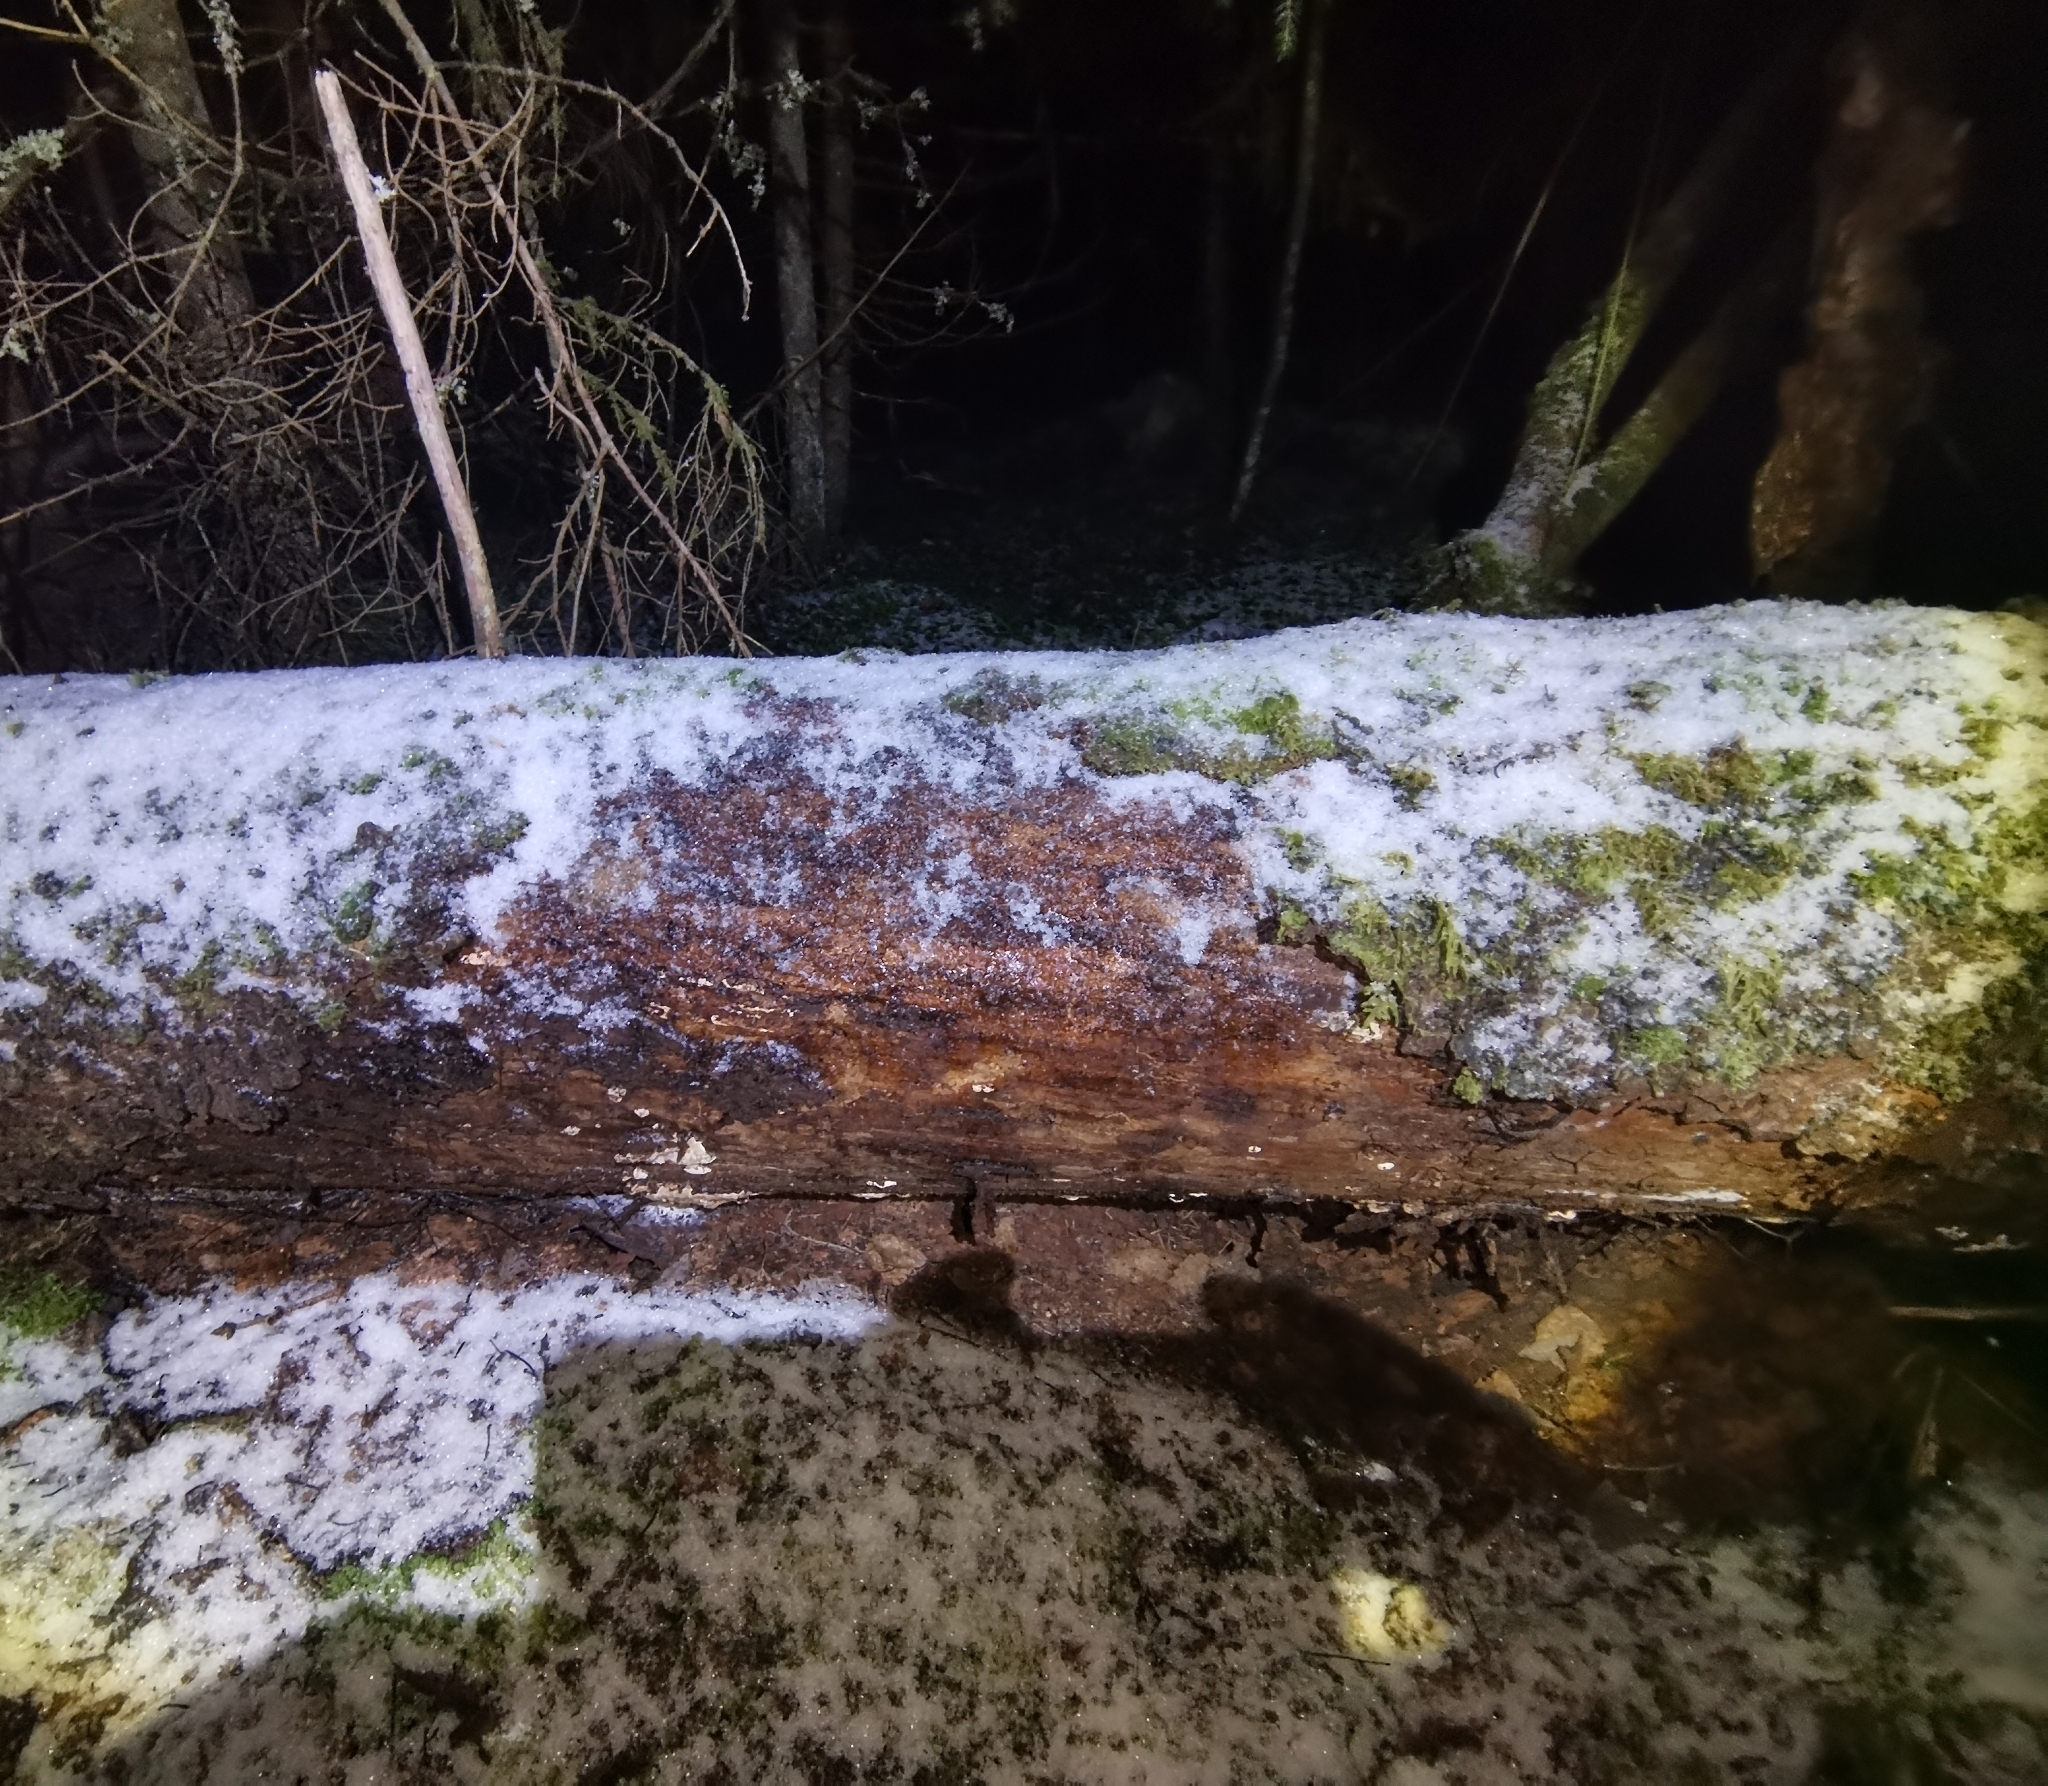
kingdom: Fungi
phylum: Basidiomycota
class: Agaricomycetes
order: Russulales
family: Bondarzewiaceae
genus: Heterobasidion
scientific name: Heterobasidion parviporum
